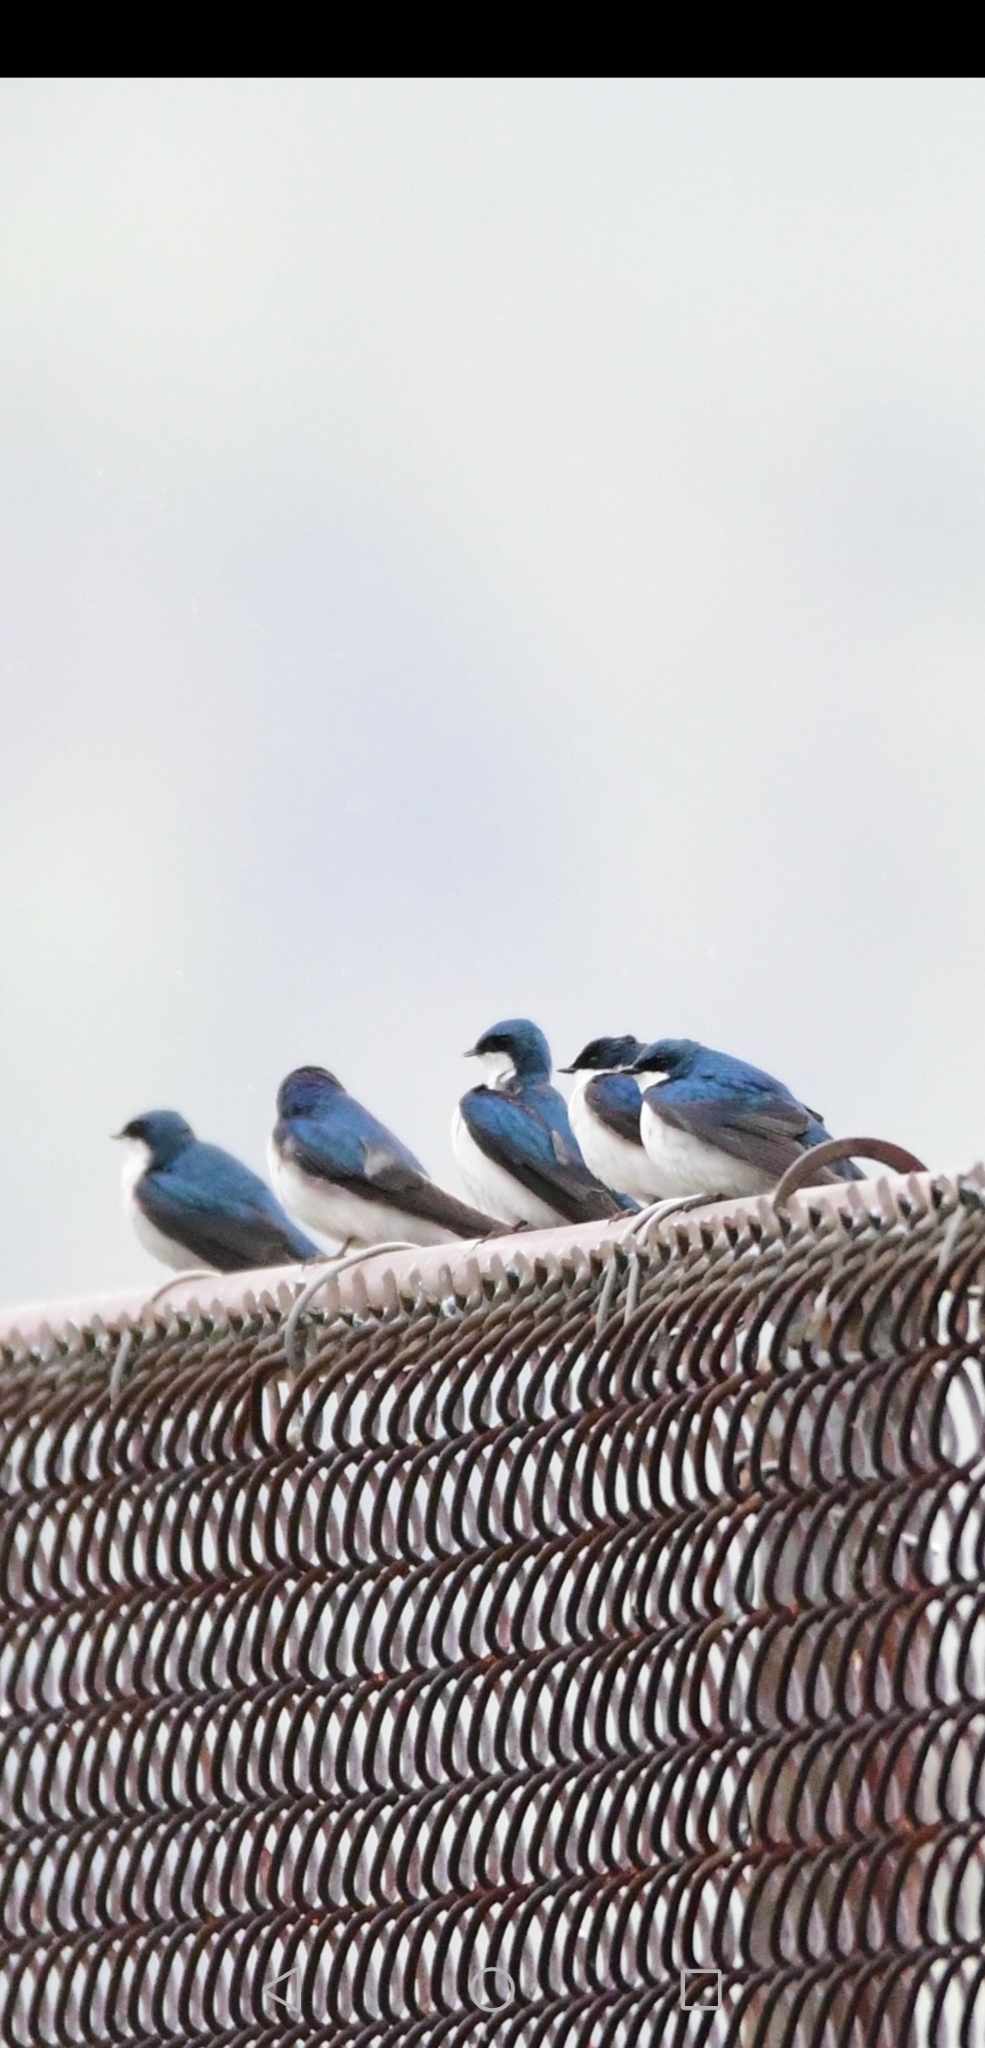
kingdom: Animalia
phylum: Chordata
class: Aves
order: Passeriformes
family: Hirundinidae
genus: Tachycineta
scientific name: Tachycineta bicolor
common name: Tree swallow
